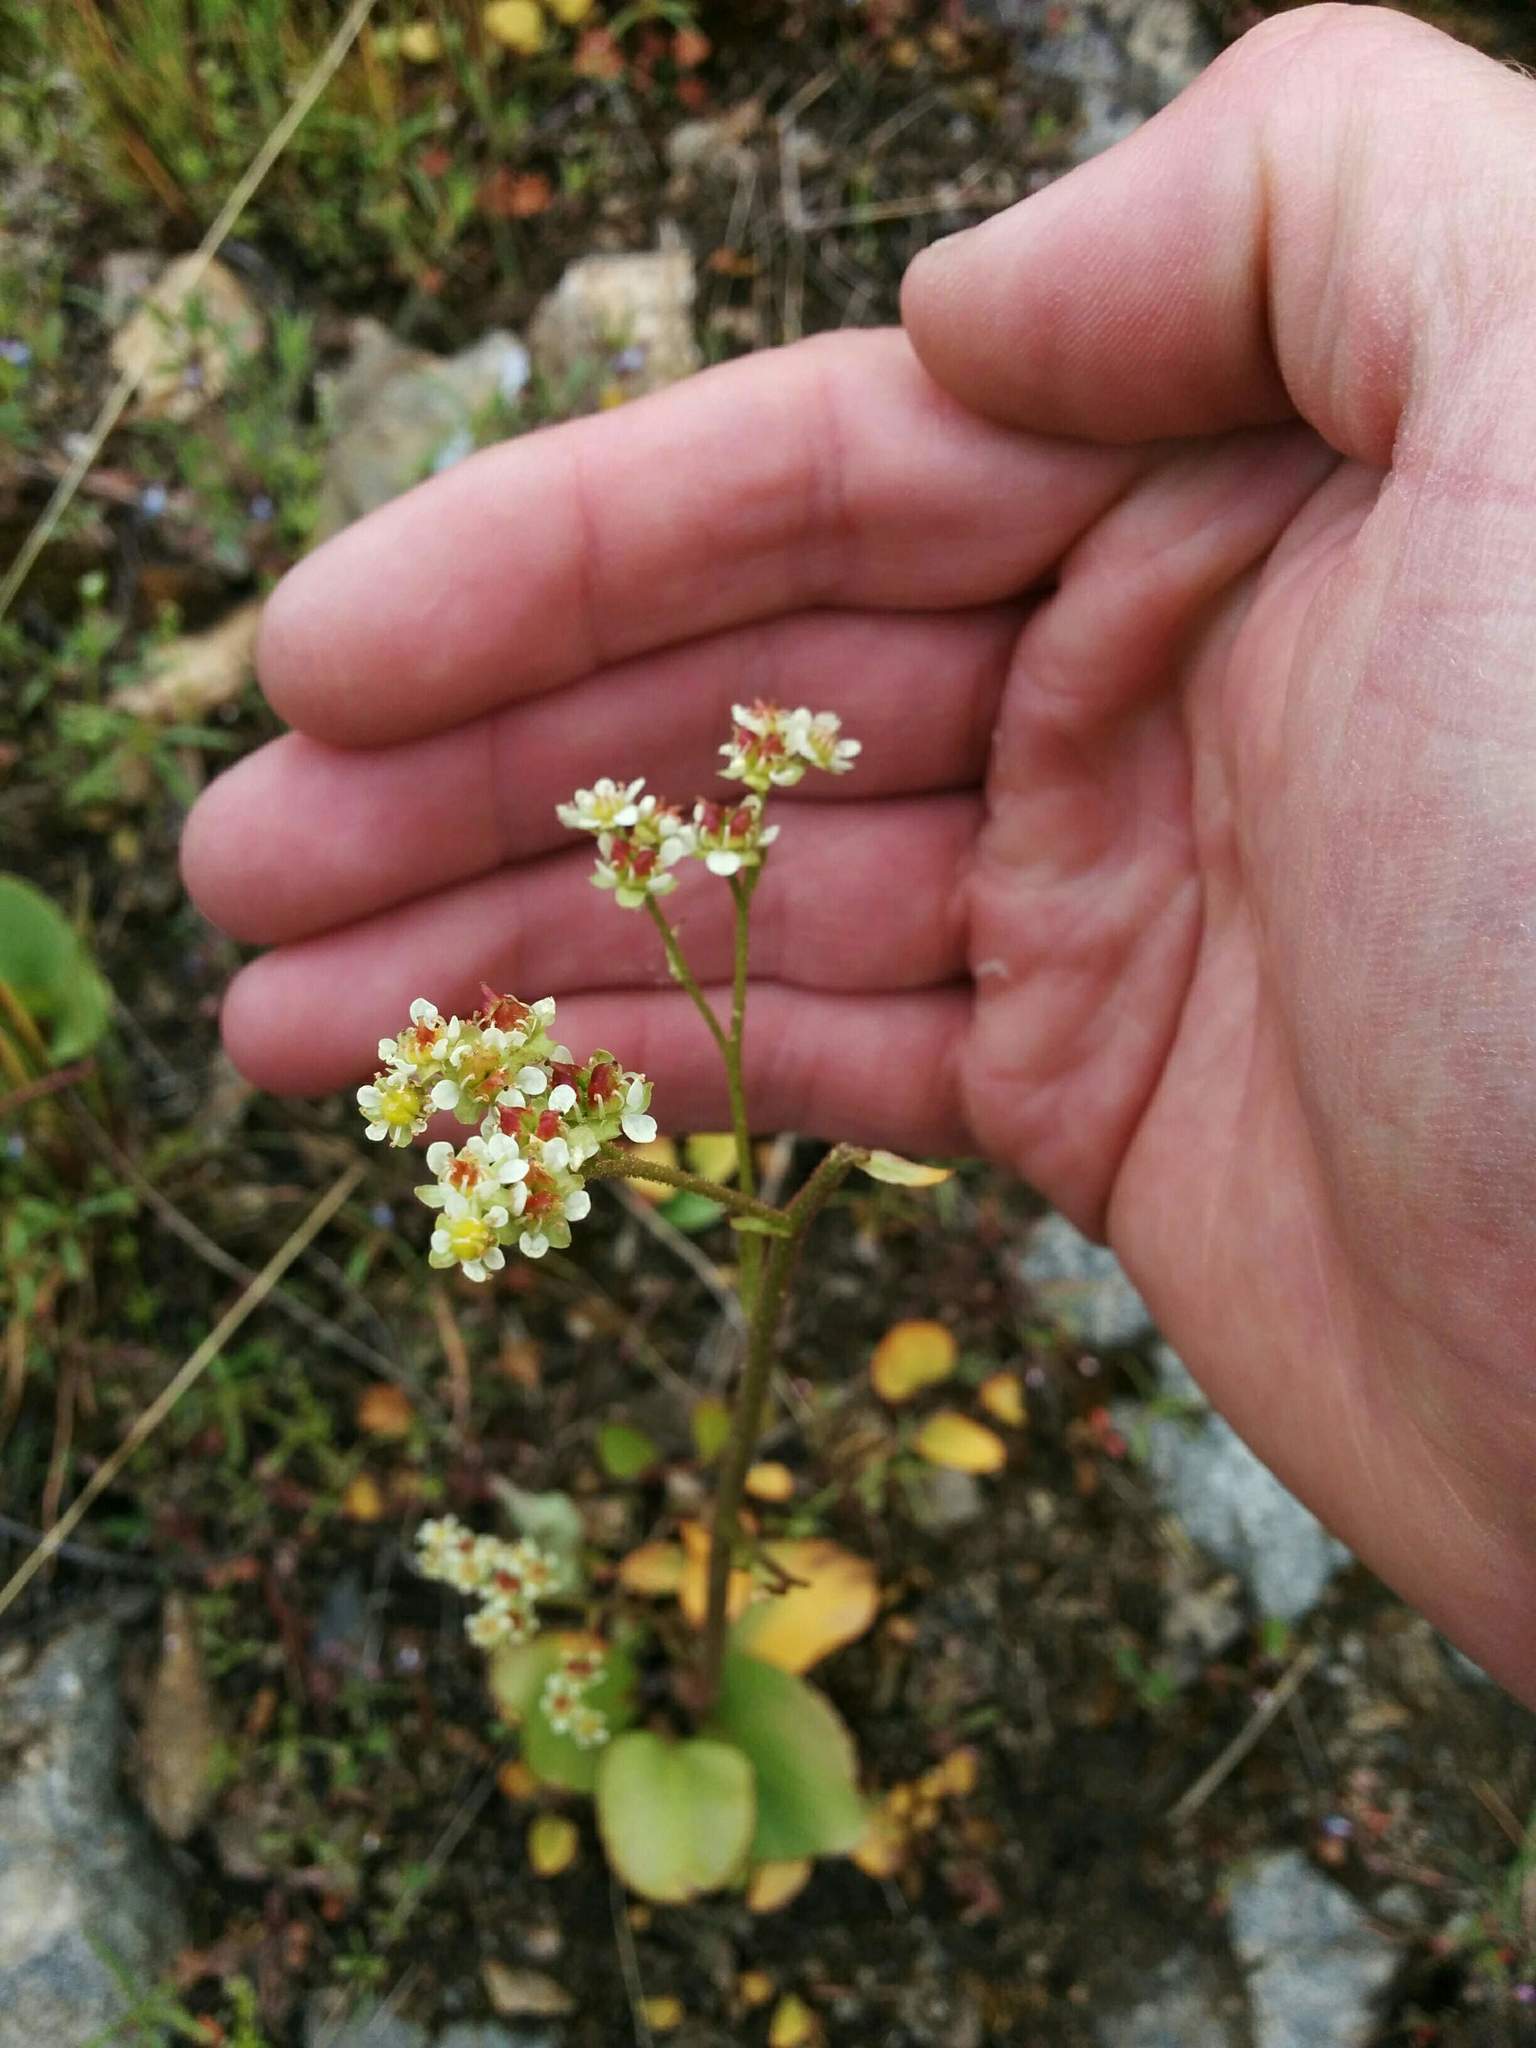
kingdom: Plantae
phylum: Tracheophyta
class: Magnoliopsida
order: Saxifragales
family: Saxifragaceae
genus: Micranthes
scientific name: Micranthes fragosa
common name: Peak saxifrage
